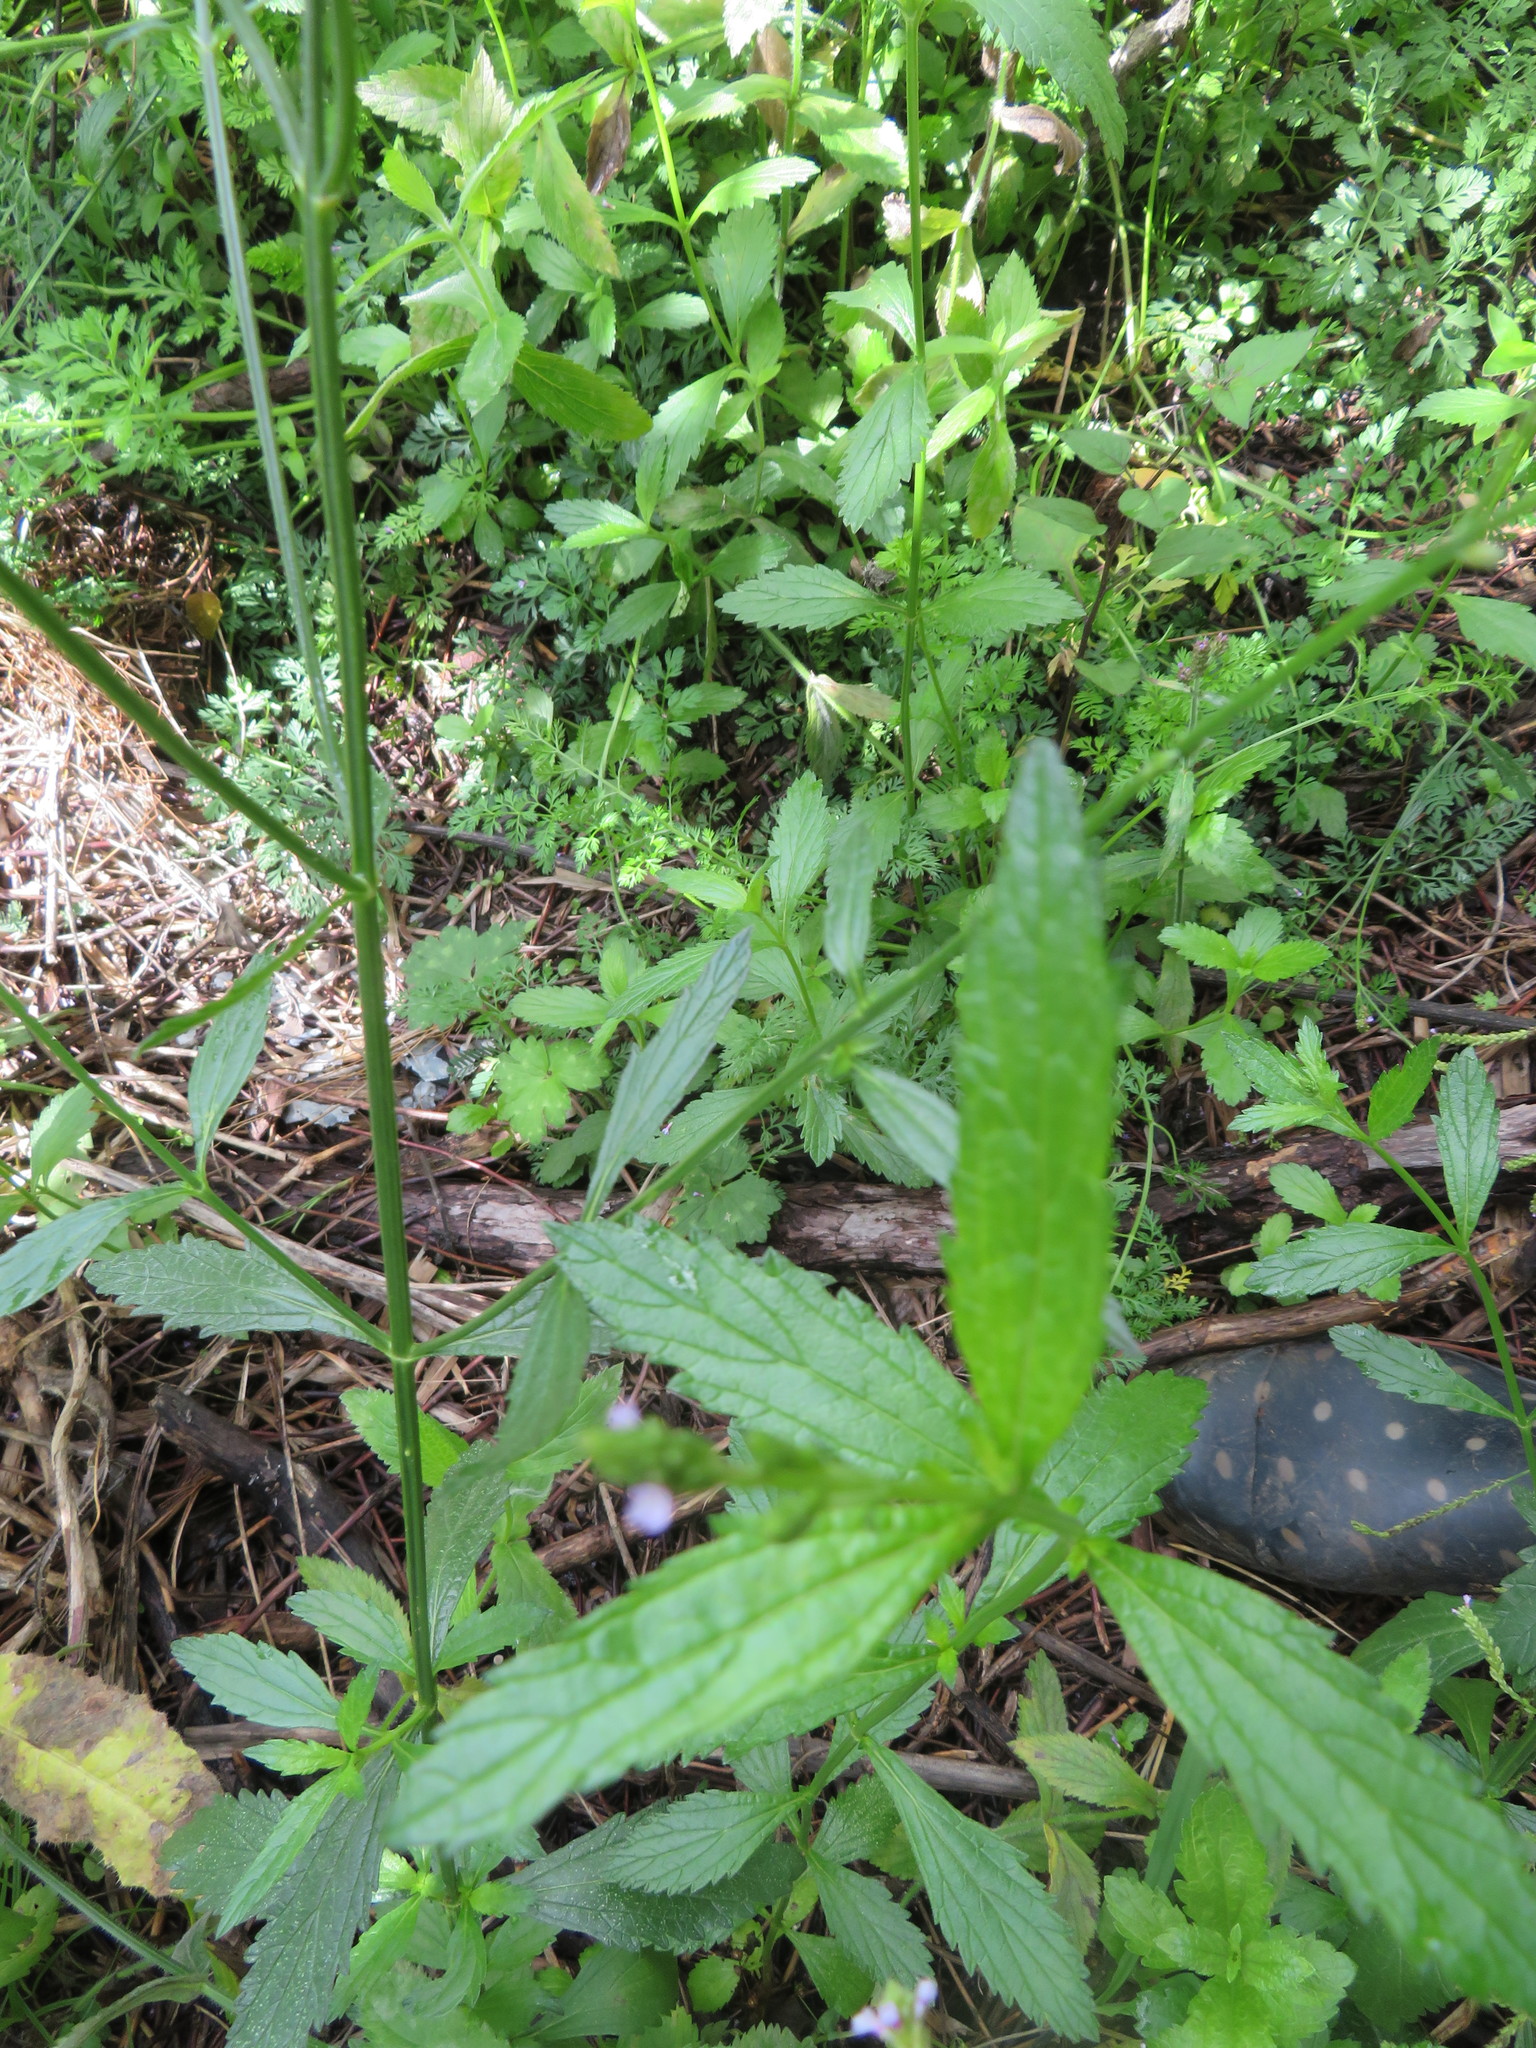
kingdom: Plantae
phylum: Tracheophyta
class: Magnoliopsida
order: Lamiales
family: Verbenaceae
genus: Verbena
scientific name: Verbena litoralis
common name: Seashore vervain
